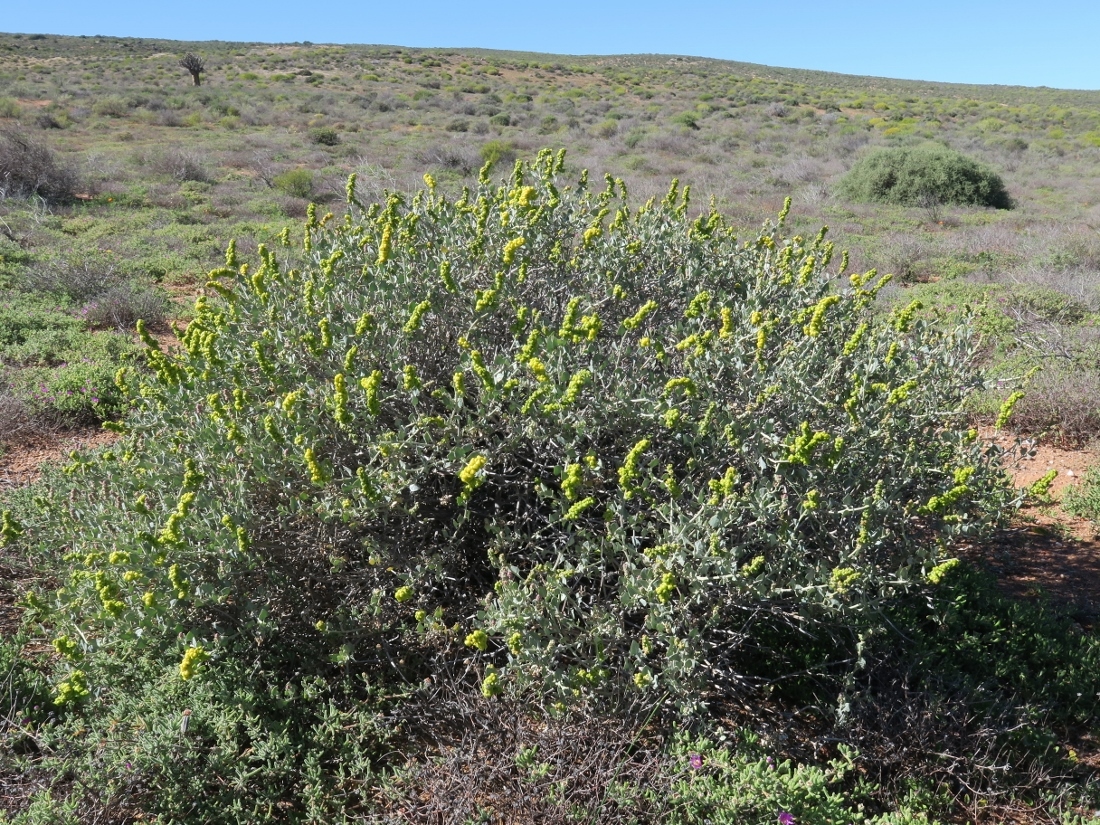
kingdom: Plantae
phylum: Tracheophyta
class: Magnoliopsida
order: Caryophyllales
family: Amaranthaceae
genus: Exomis
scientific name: Exomis albicans
